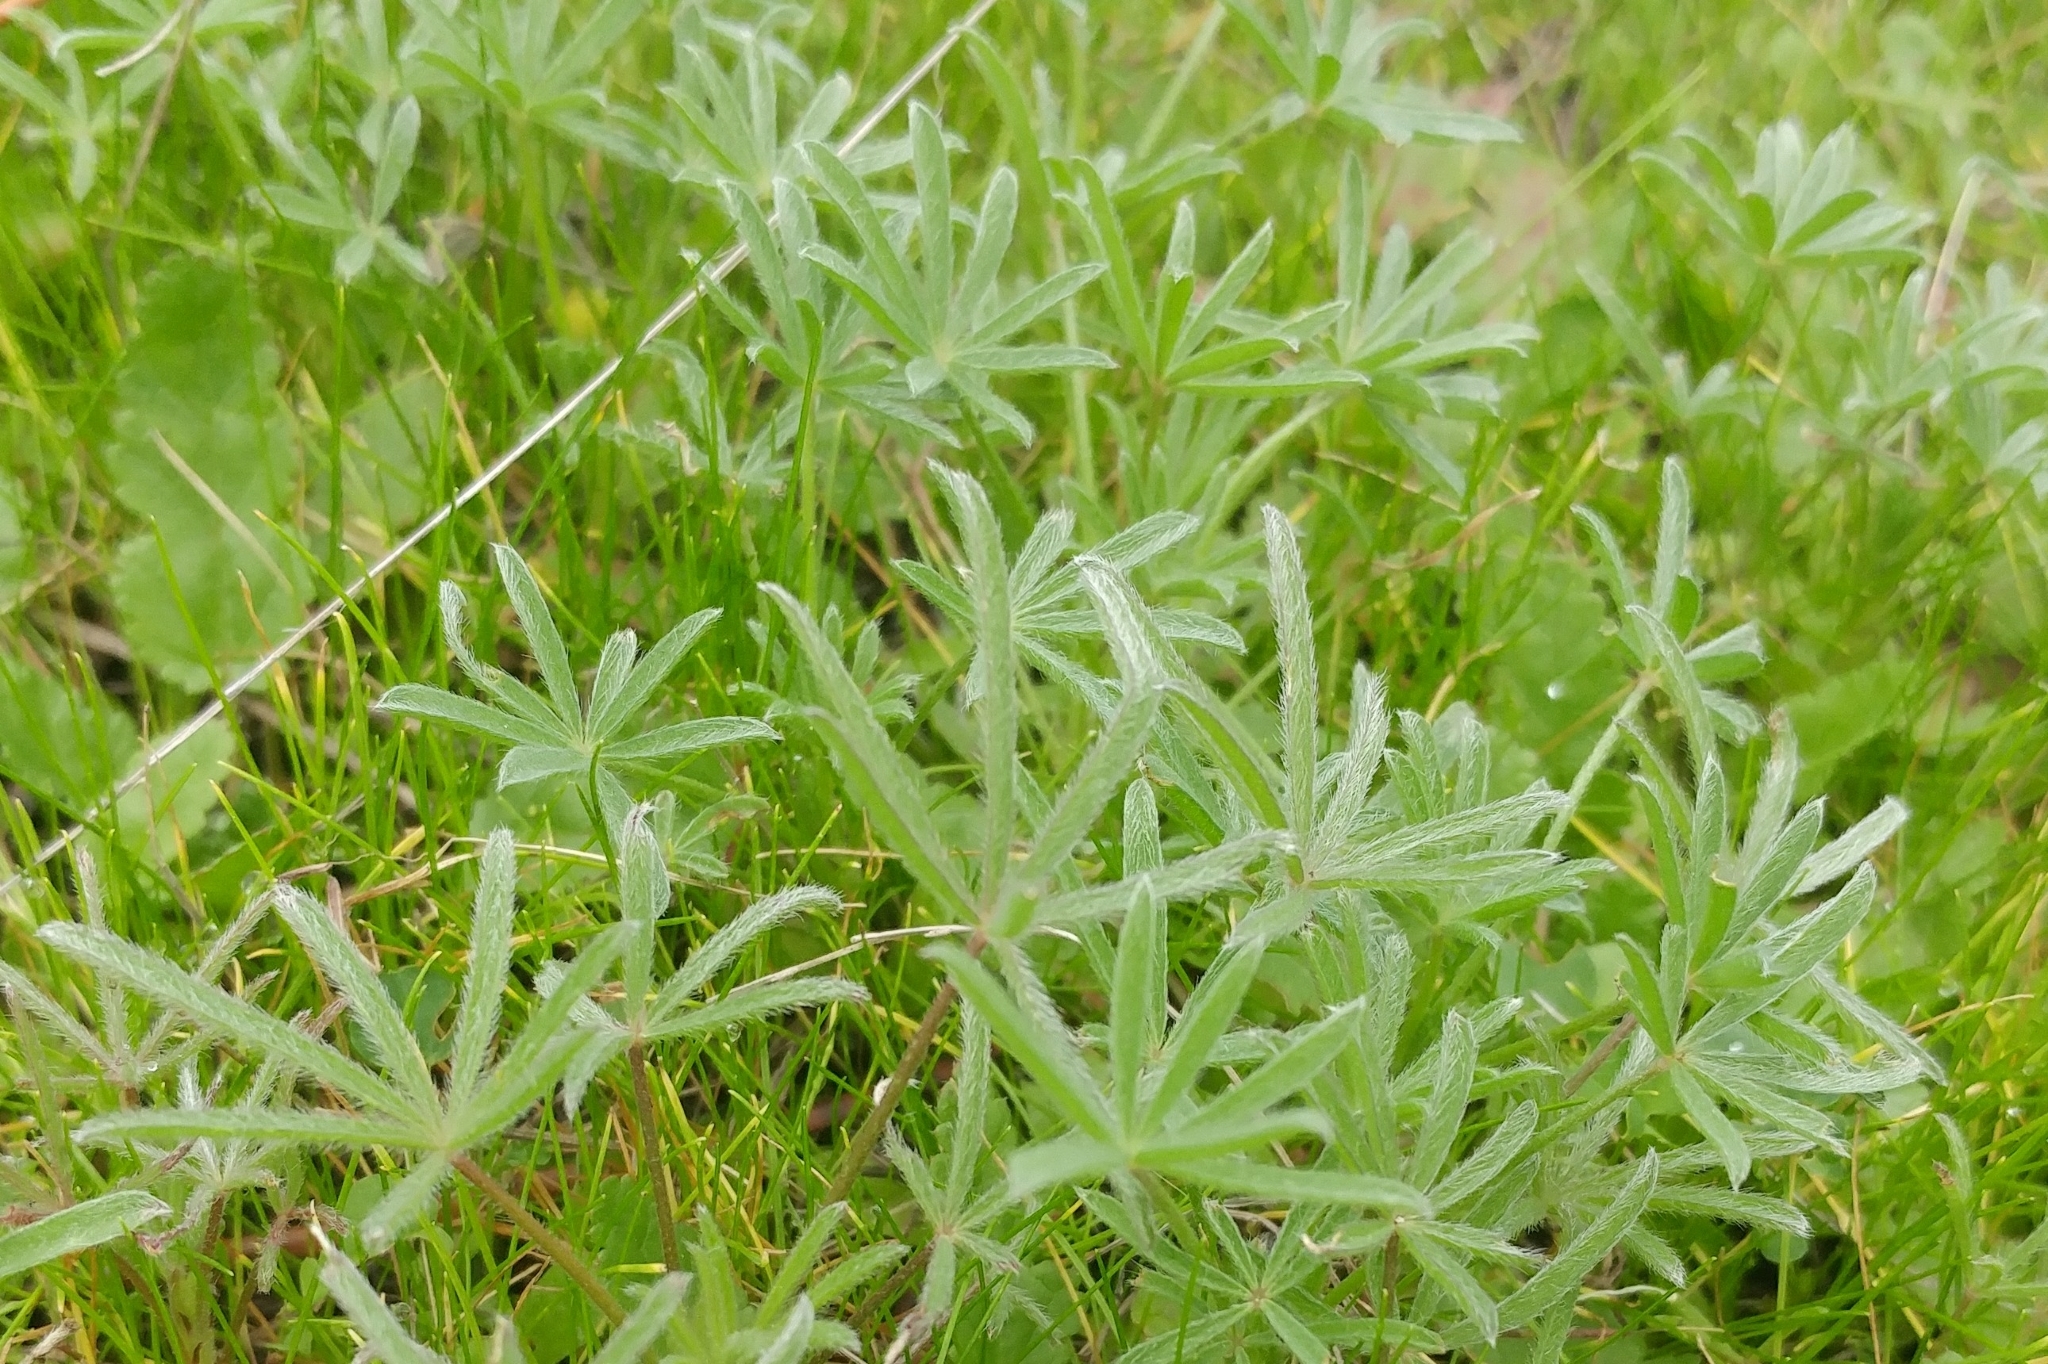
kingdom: Plantae
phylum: Tracheophyta
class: Magnoliopsida
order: Fabales
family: Fabaceae
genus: Lupinus
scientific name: Lupinus bicolor
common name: Miniature lupine
